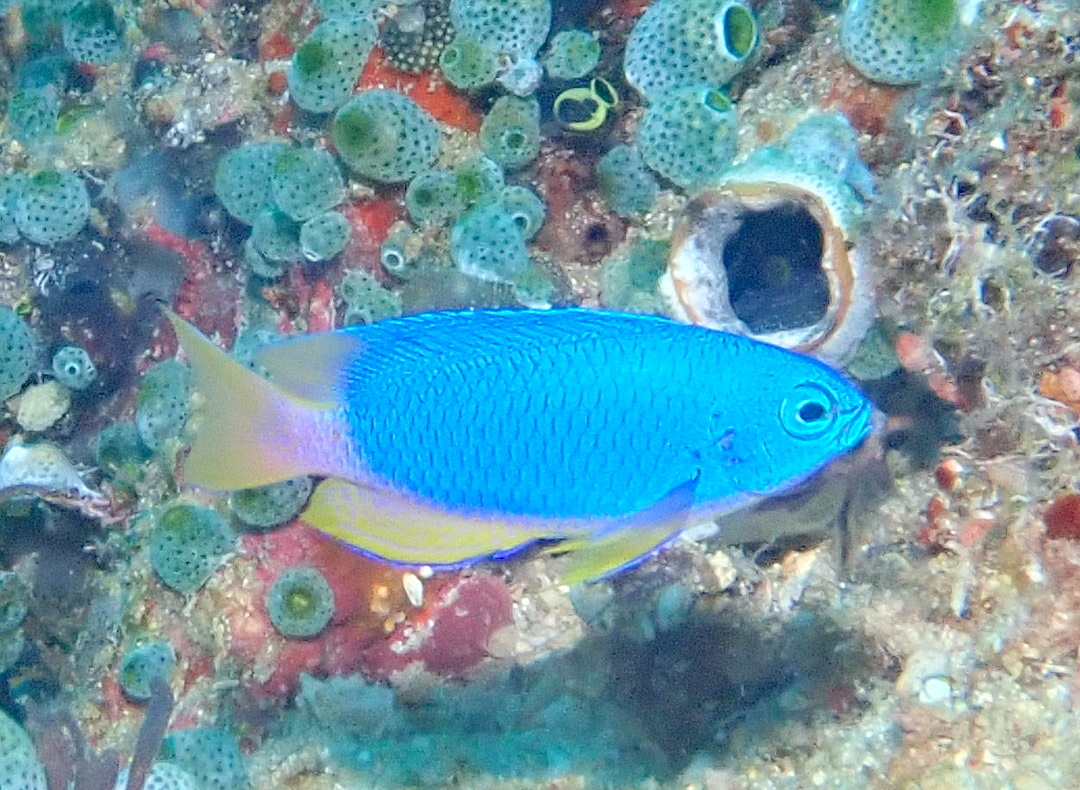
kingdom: Animalia
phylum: Chordata
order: Perciformes
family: Pomacentridae
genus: Pomacentrus
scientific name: Pomacentrus coelestis
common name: Neon damsel
